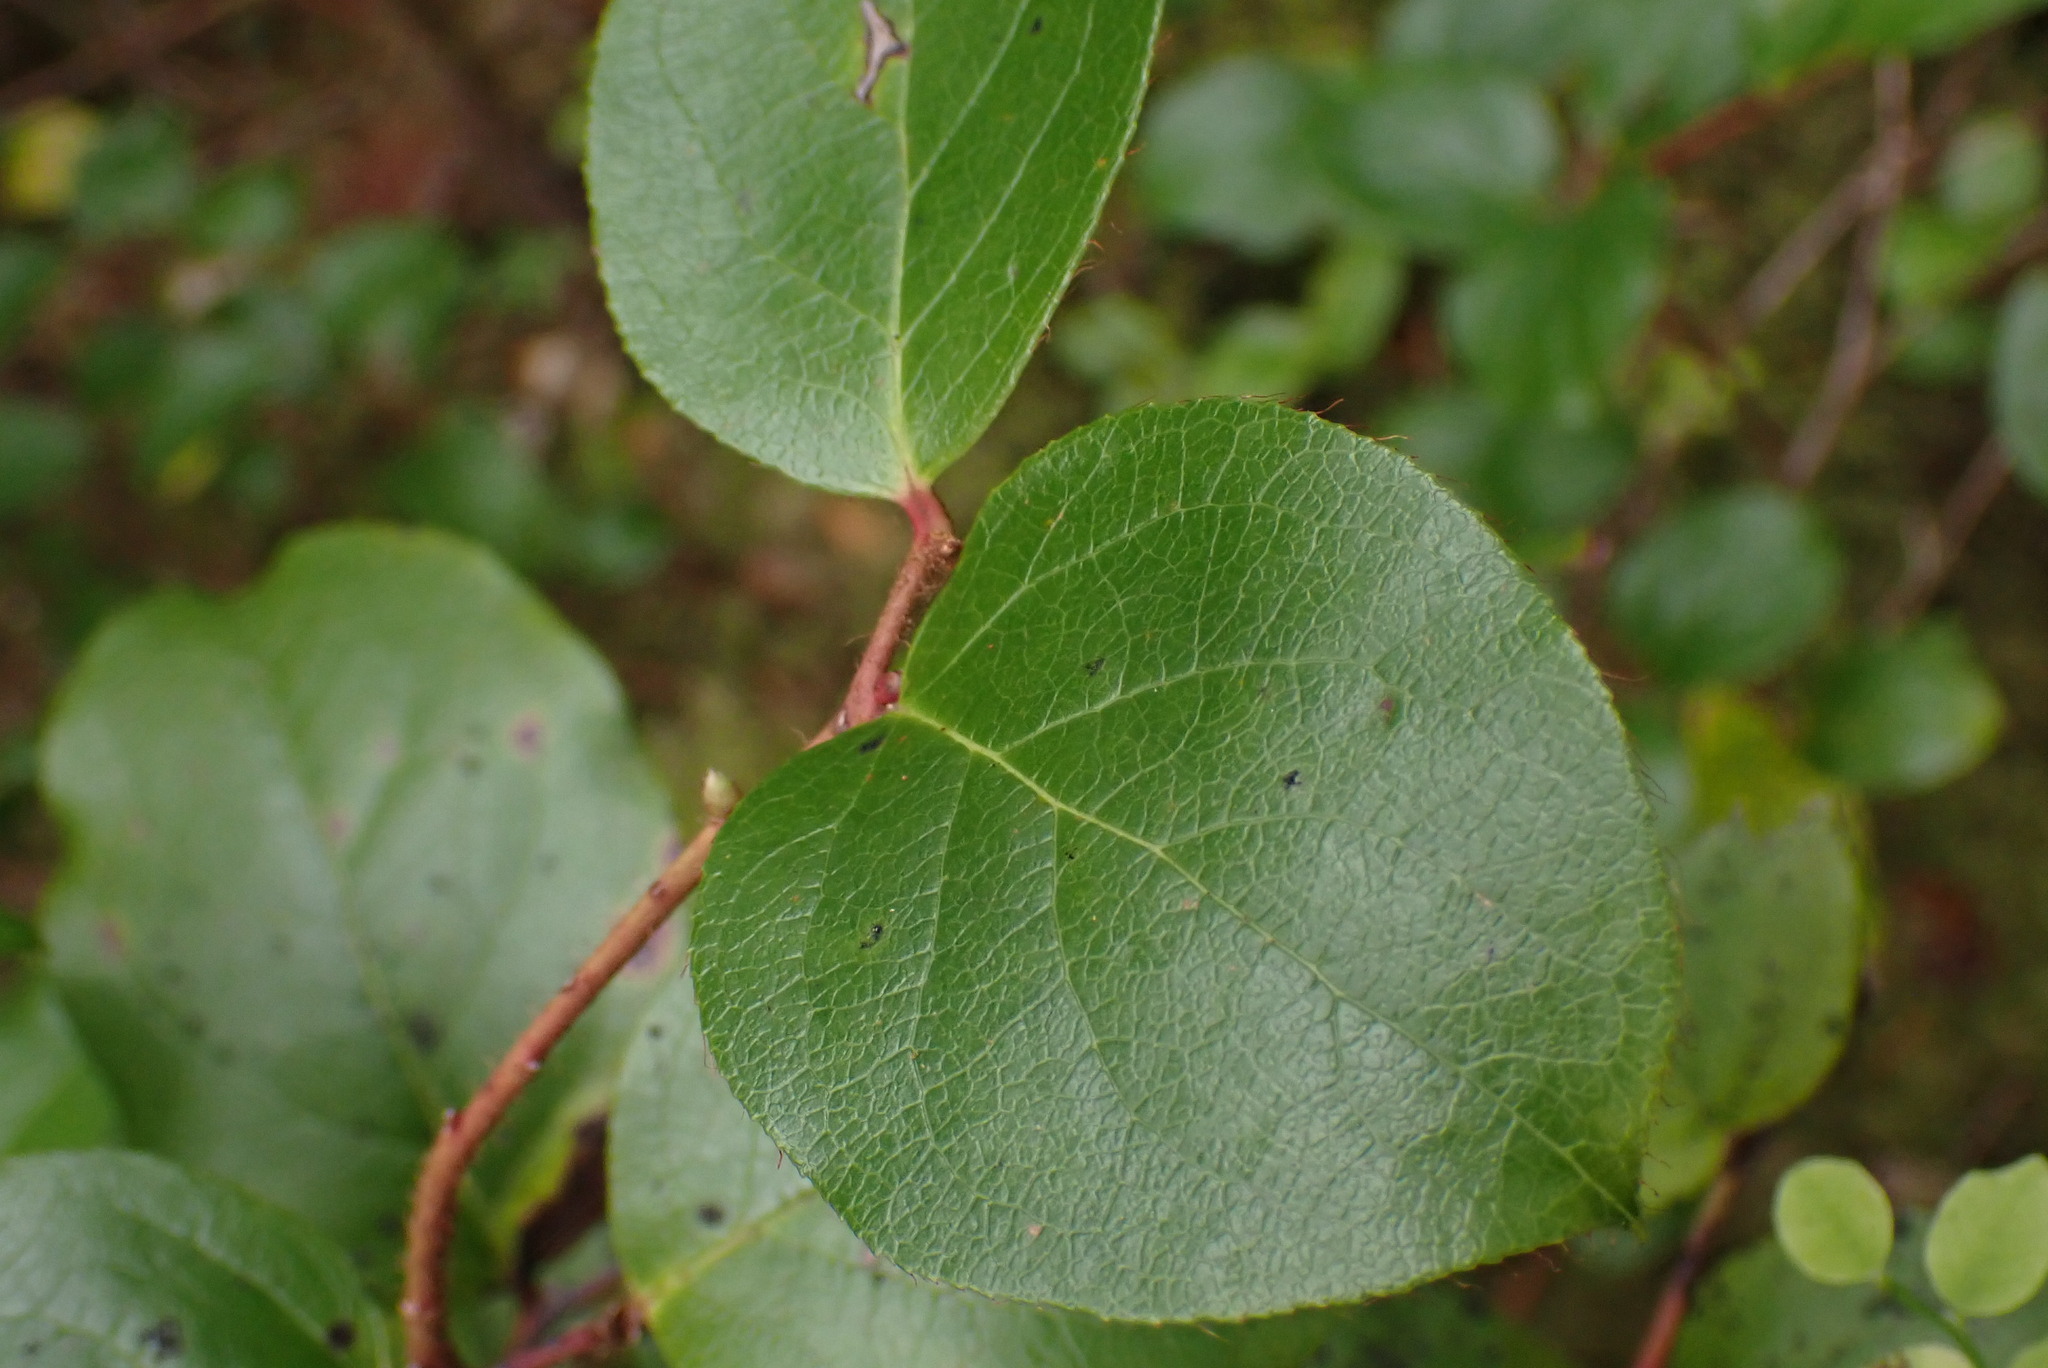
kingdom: Plantae
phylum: Tracheophyta
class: Magnoliopsida
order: Ericales
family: Ericaceae
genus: Gaultheria
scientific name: Gaultheria shallon
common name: Shallon
